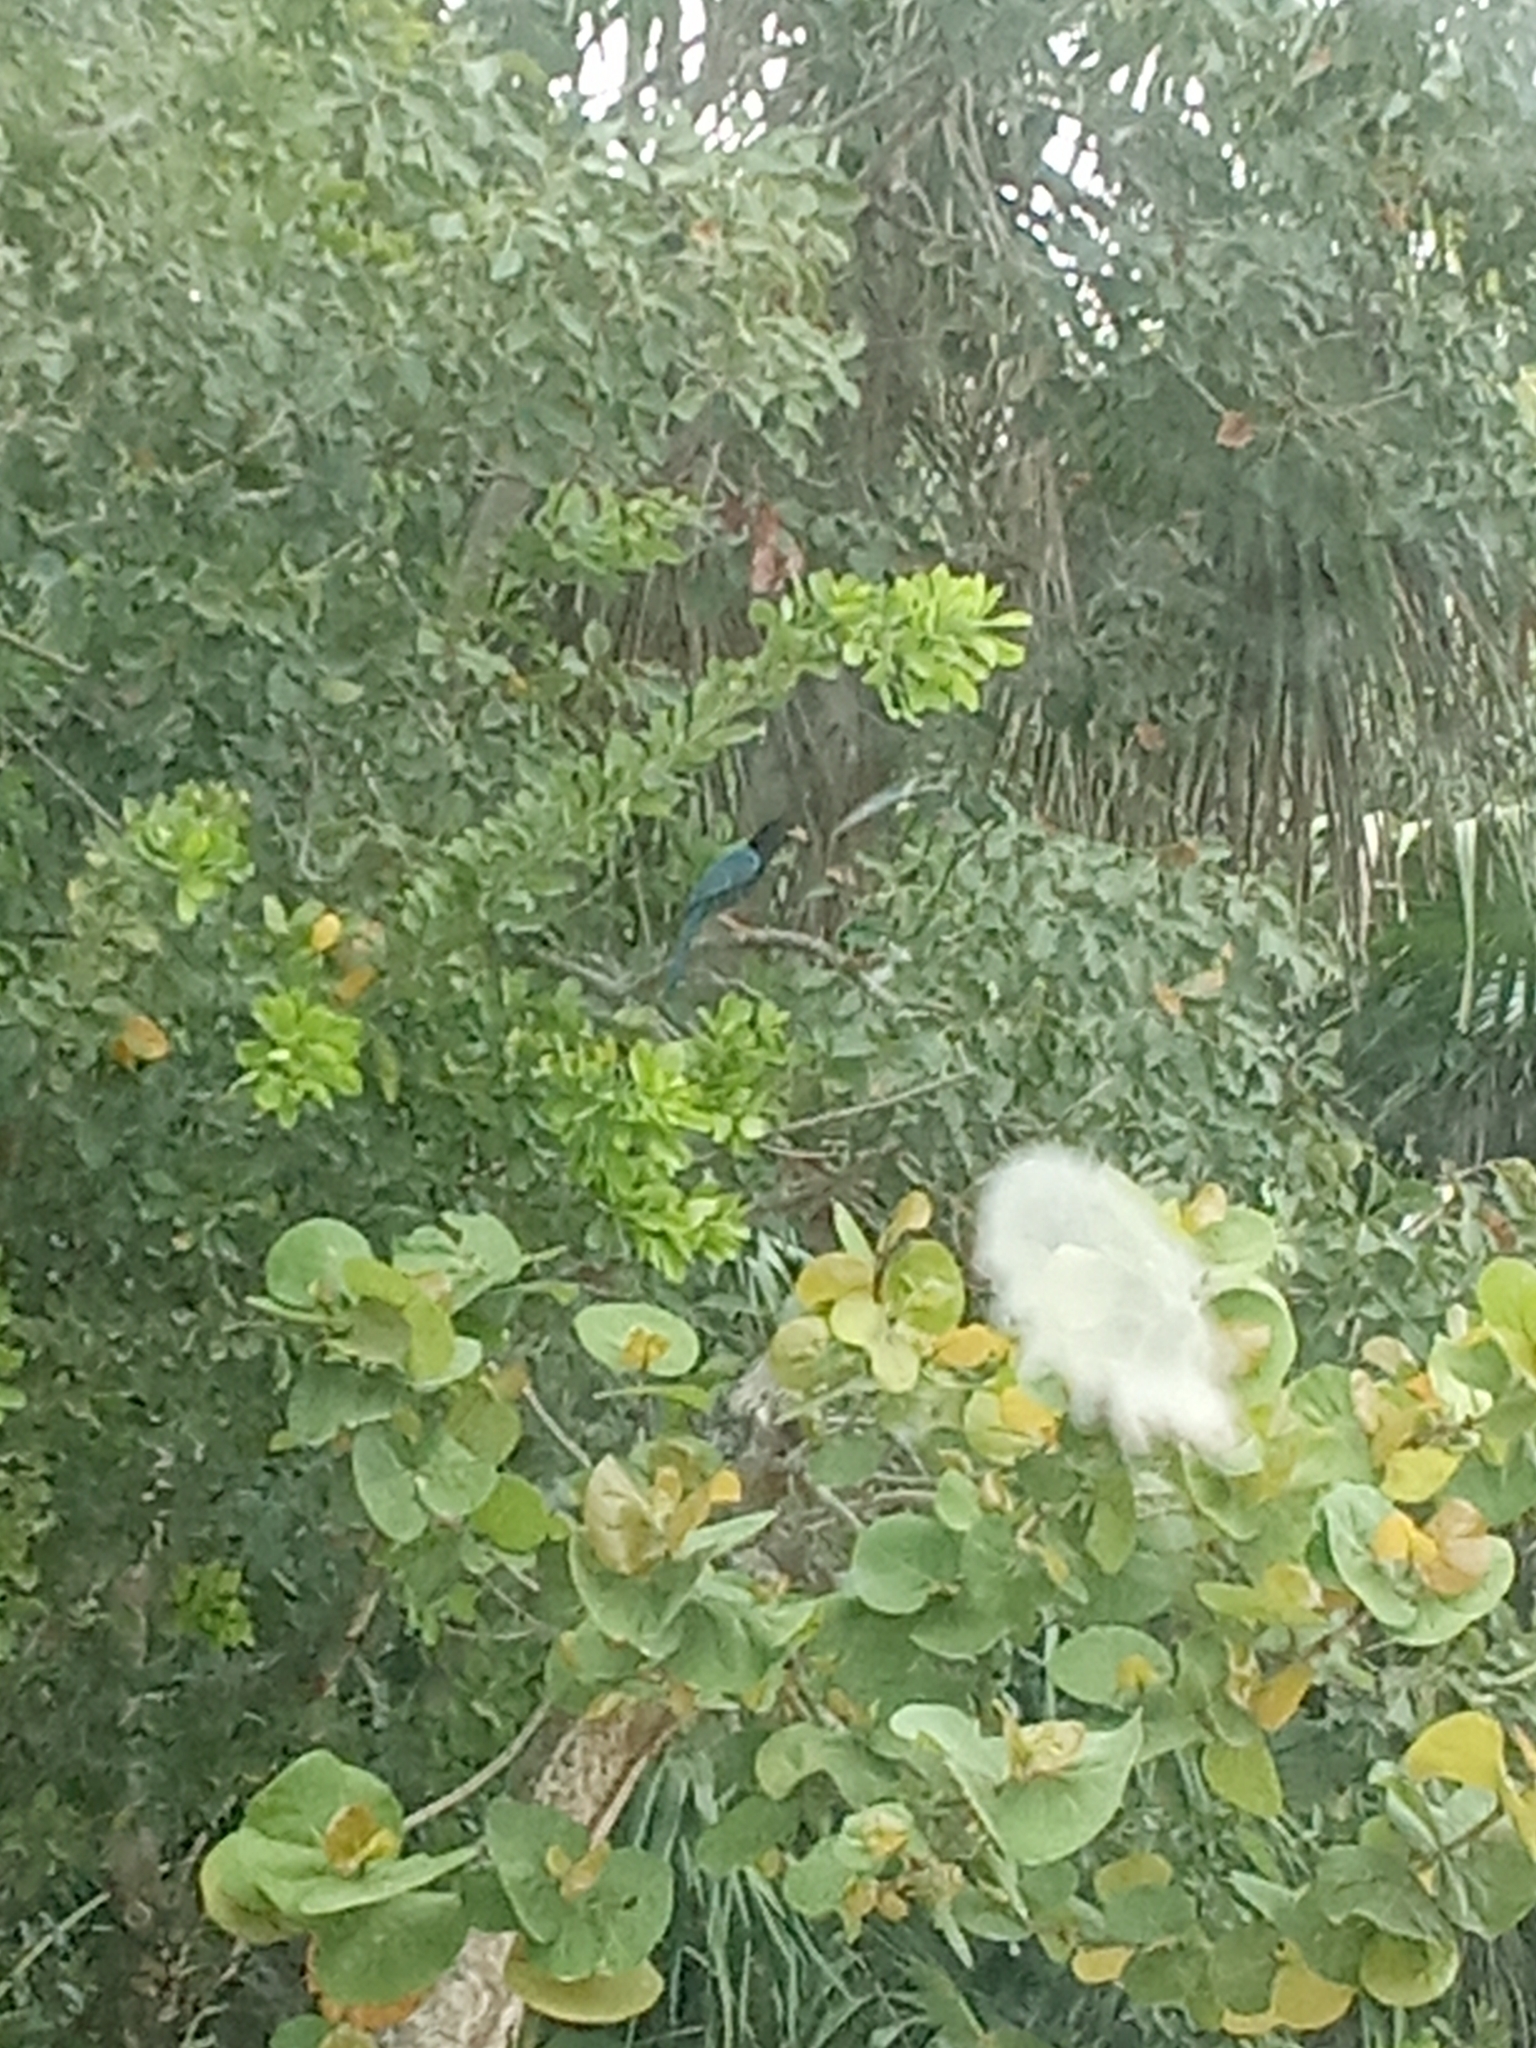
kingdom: Animalia
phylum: Chordata
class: Aves
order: Passeriformes
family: Corvidae
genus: Cyanocorax
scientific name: Cyanocorax yucatanicus
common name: Yucatan jay
